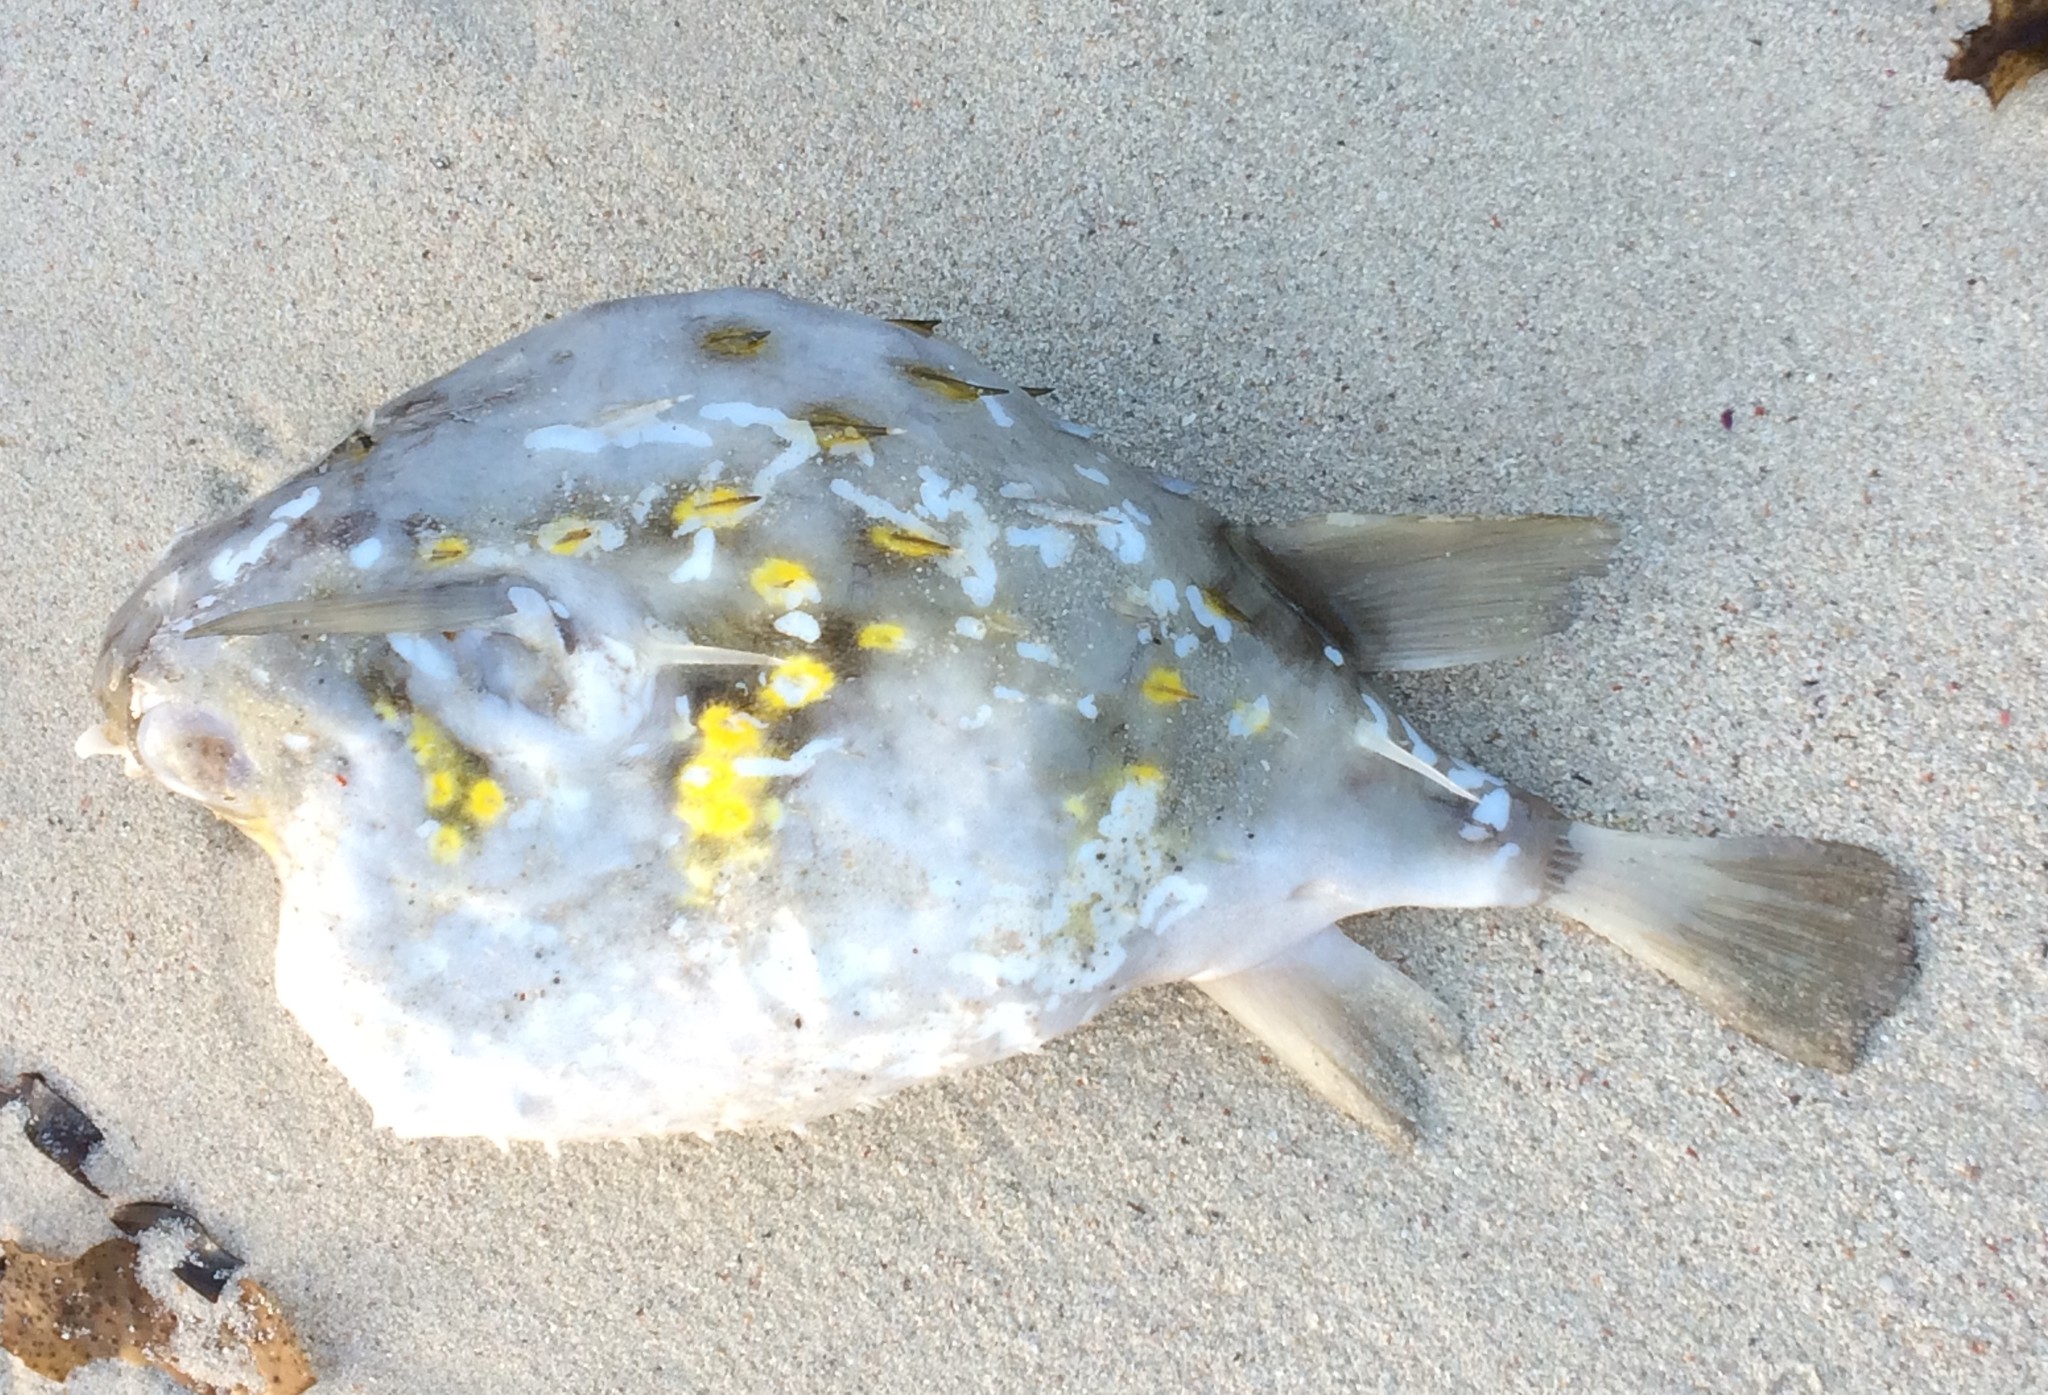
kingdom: Animalia
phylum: Chordata
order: Tetraodontiformes
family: Diodontidae
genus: Allomycterus
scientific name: Allomycterus pilatus
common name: No common name
